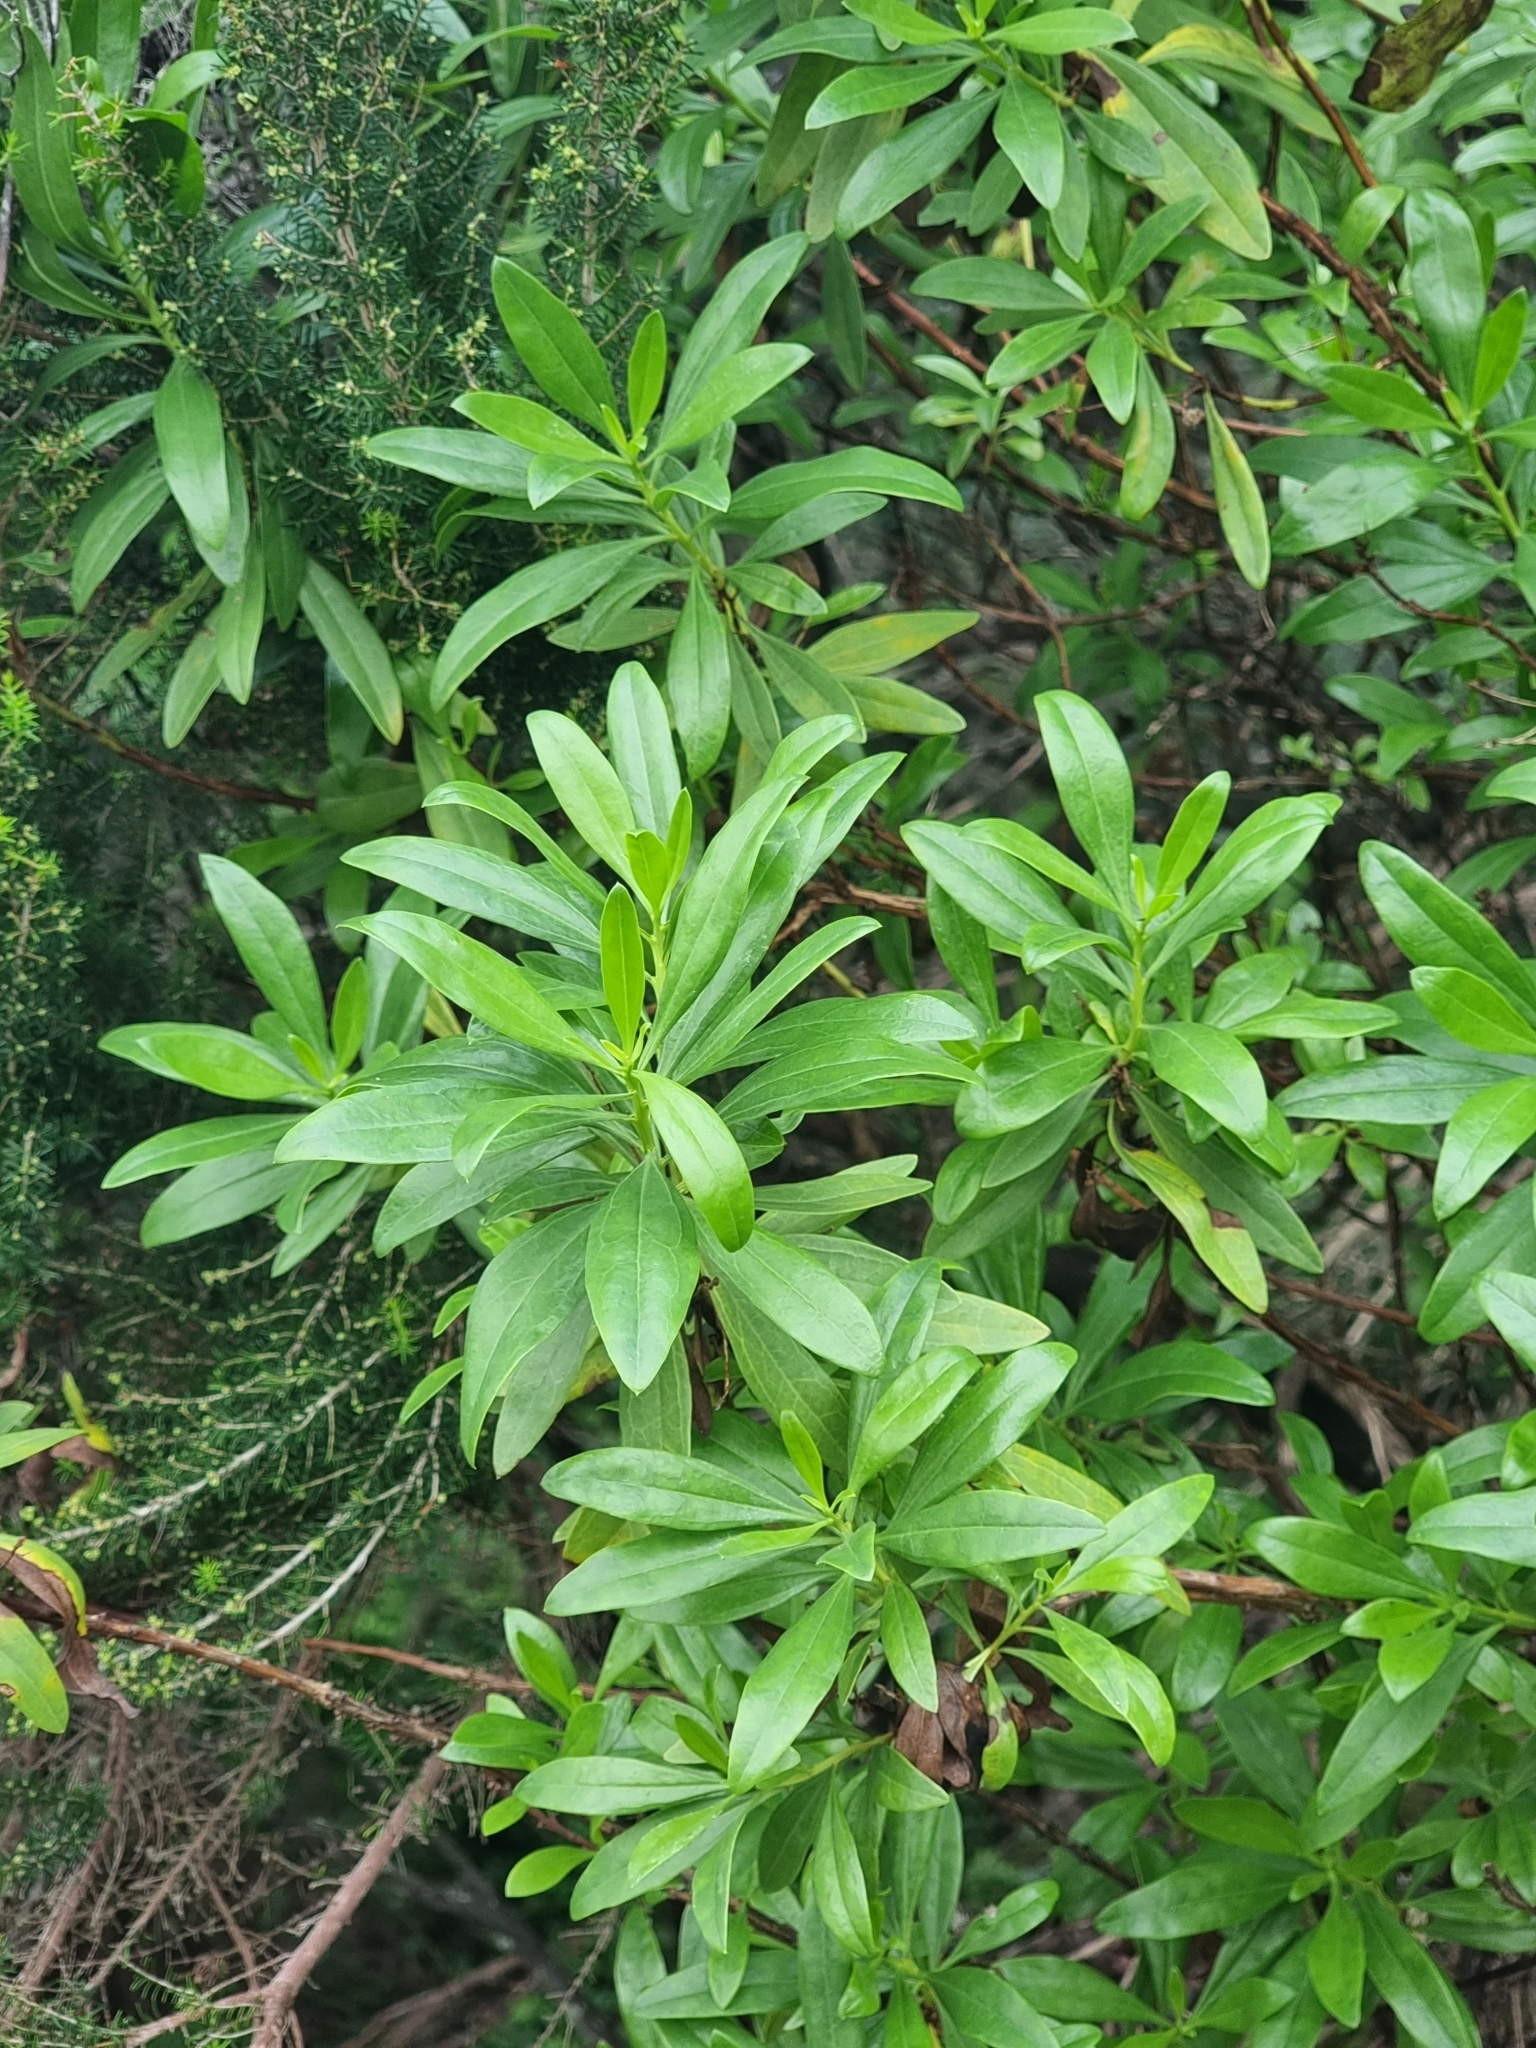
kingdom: Plantae
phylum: Tracheophyta
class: Magnoliopsida
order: Lamiales
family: Plantaginaceae
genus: Globularia
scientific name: Globularia salicina
